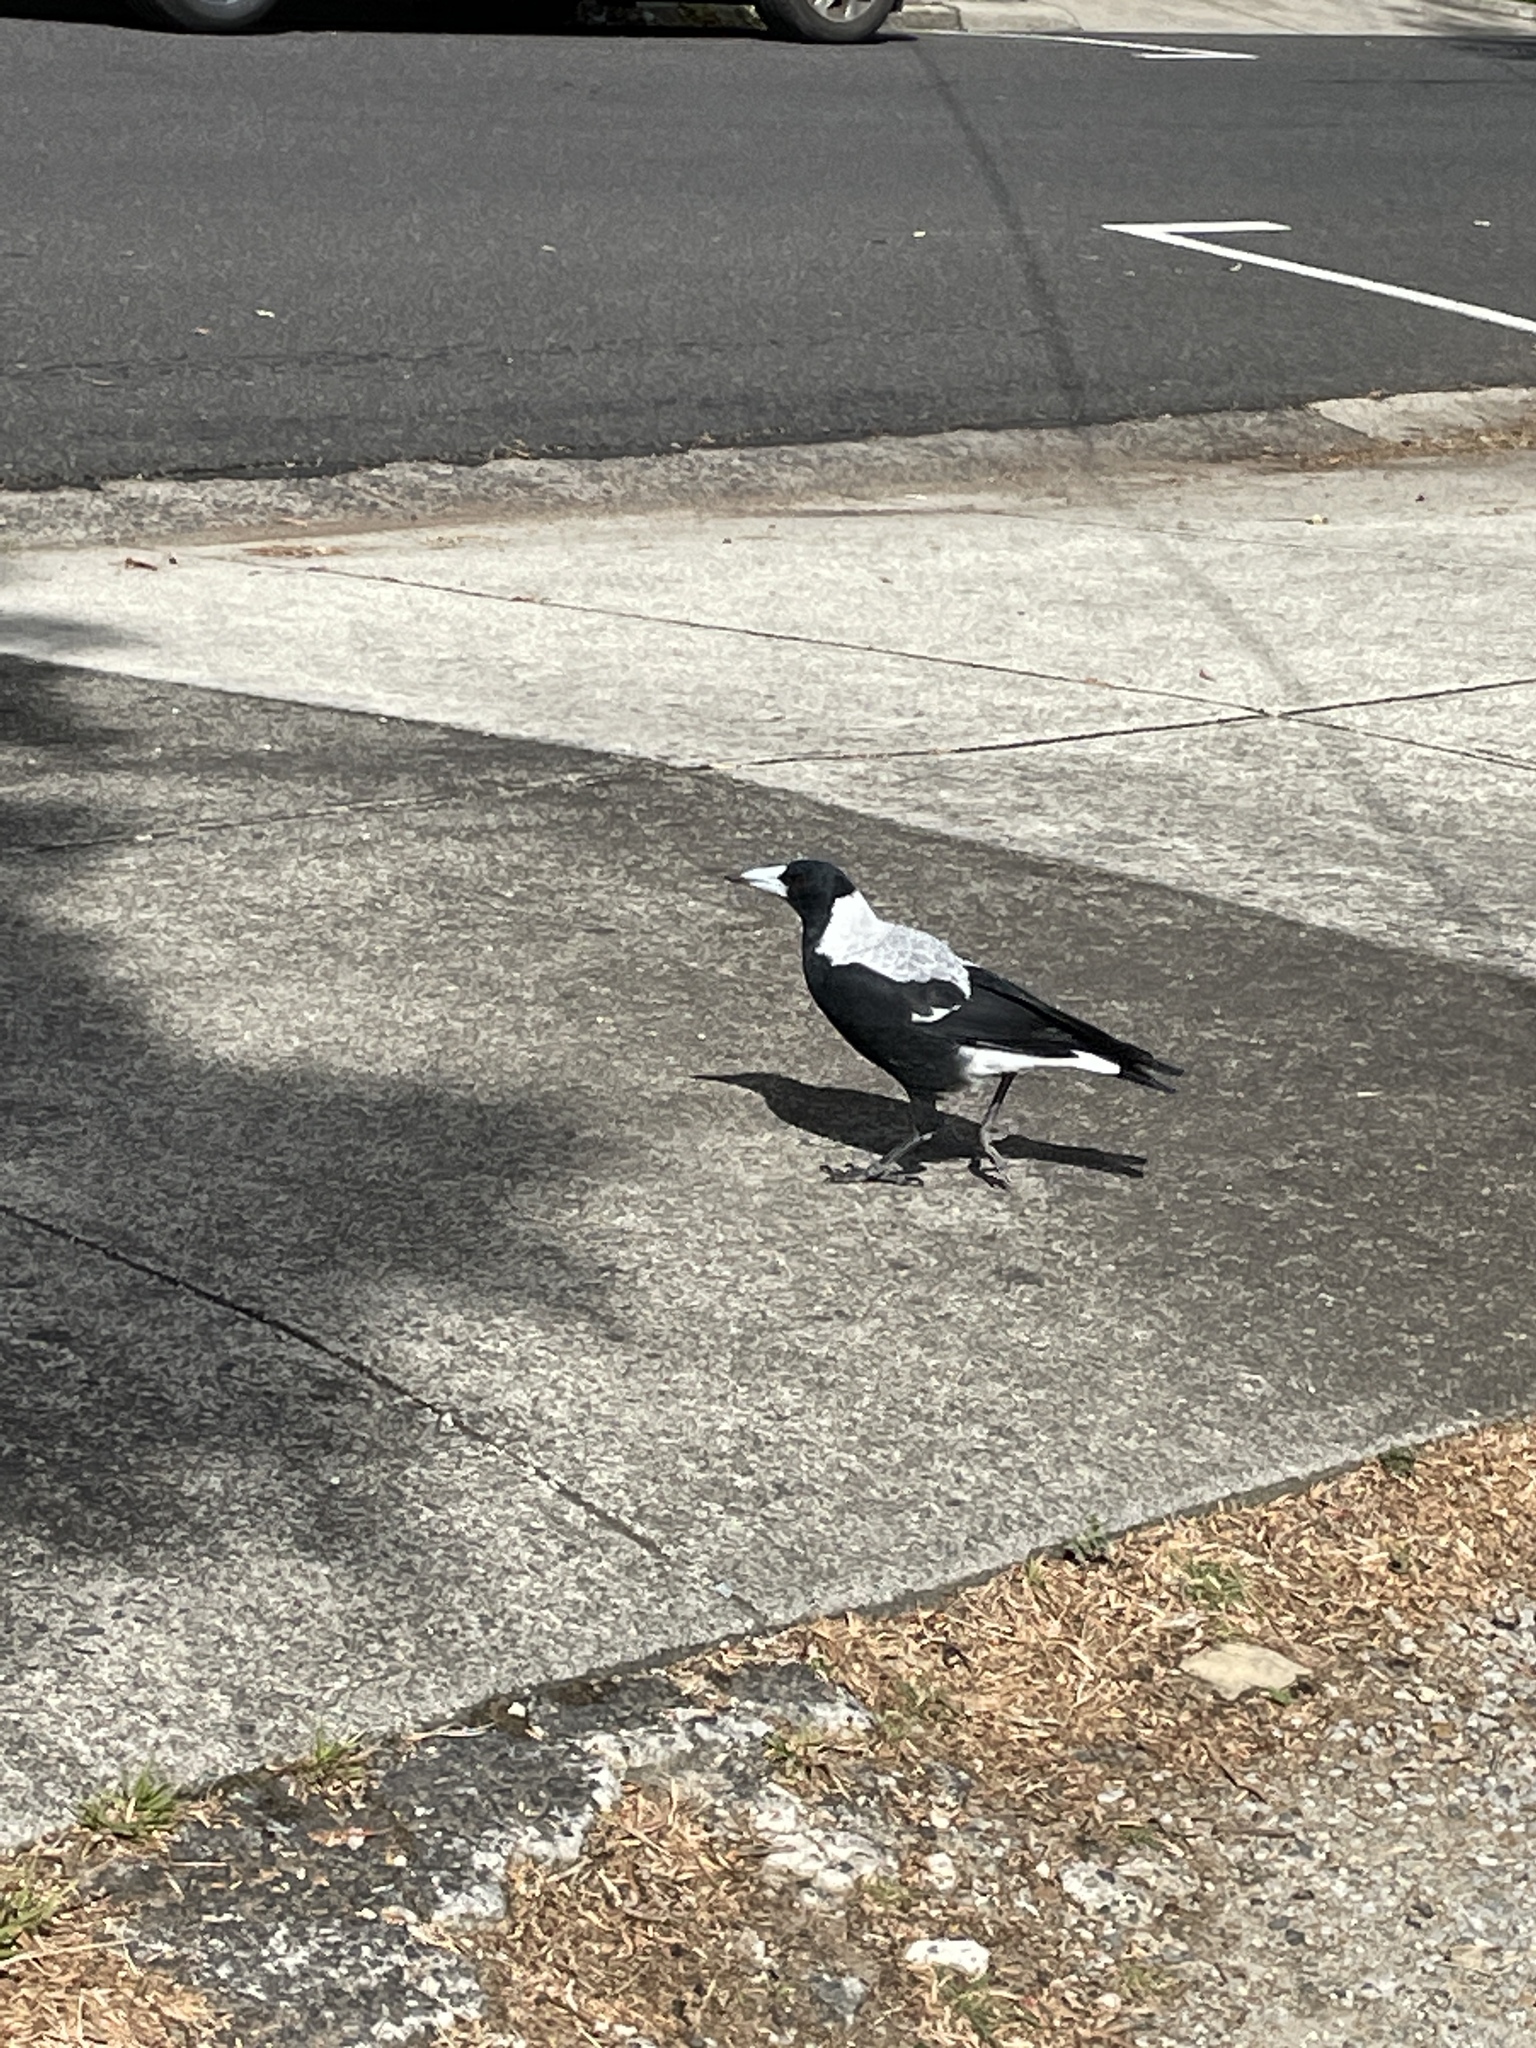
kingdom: Animalia
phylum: Chordata
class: Aves
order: Passeriformes
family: Cracticidae
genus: Gymnorhina
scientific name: Gymnorhina tibicen
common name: Australian magpie
